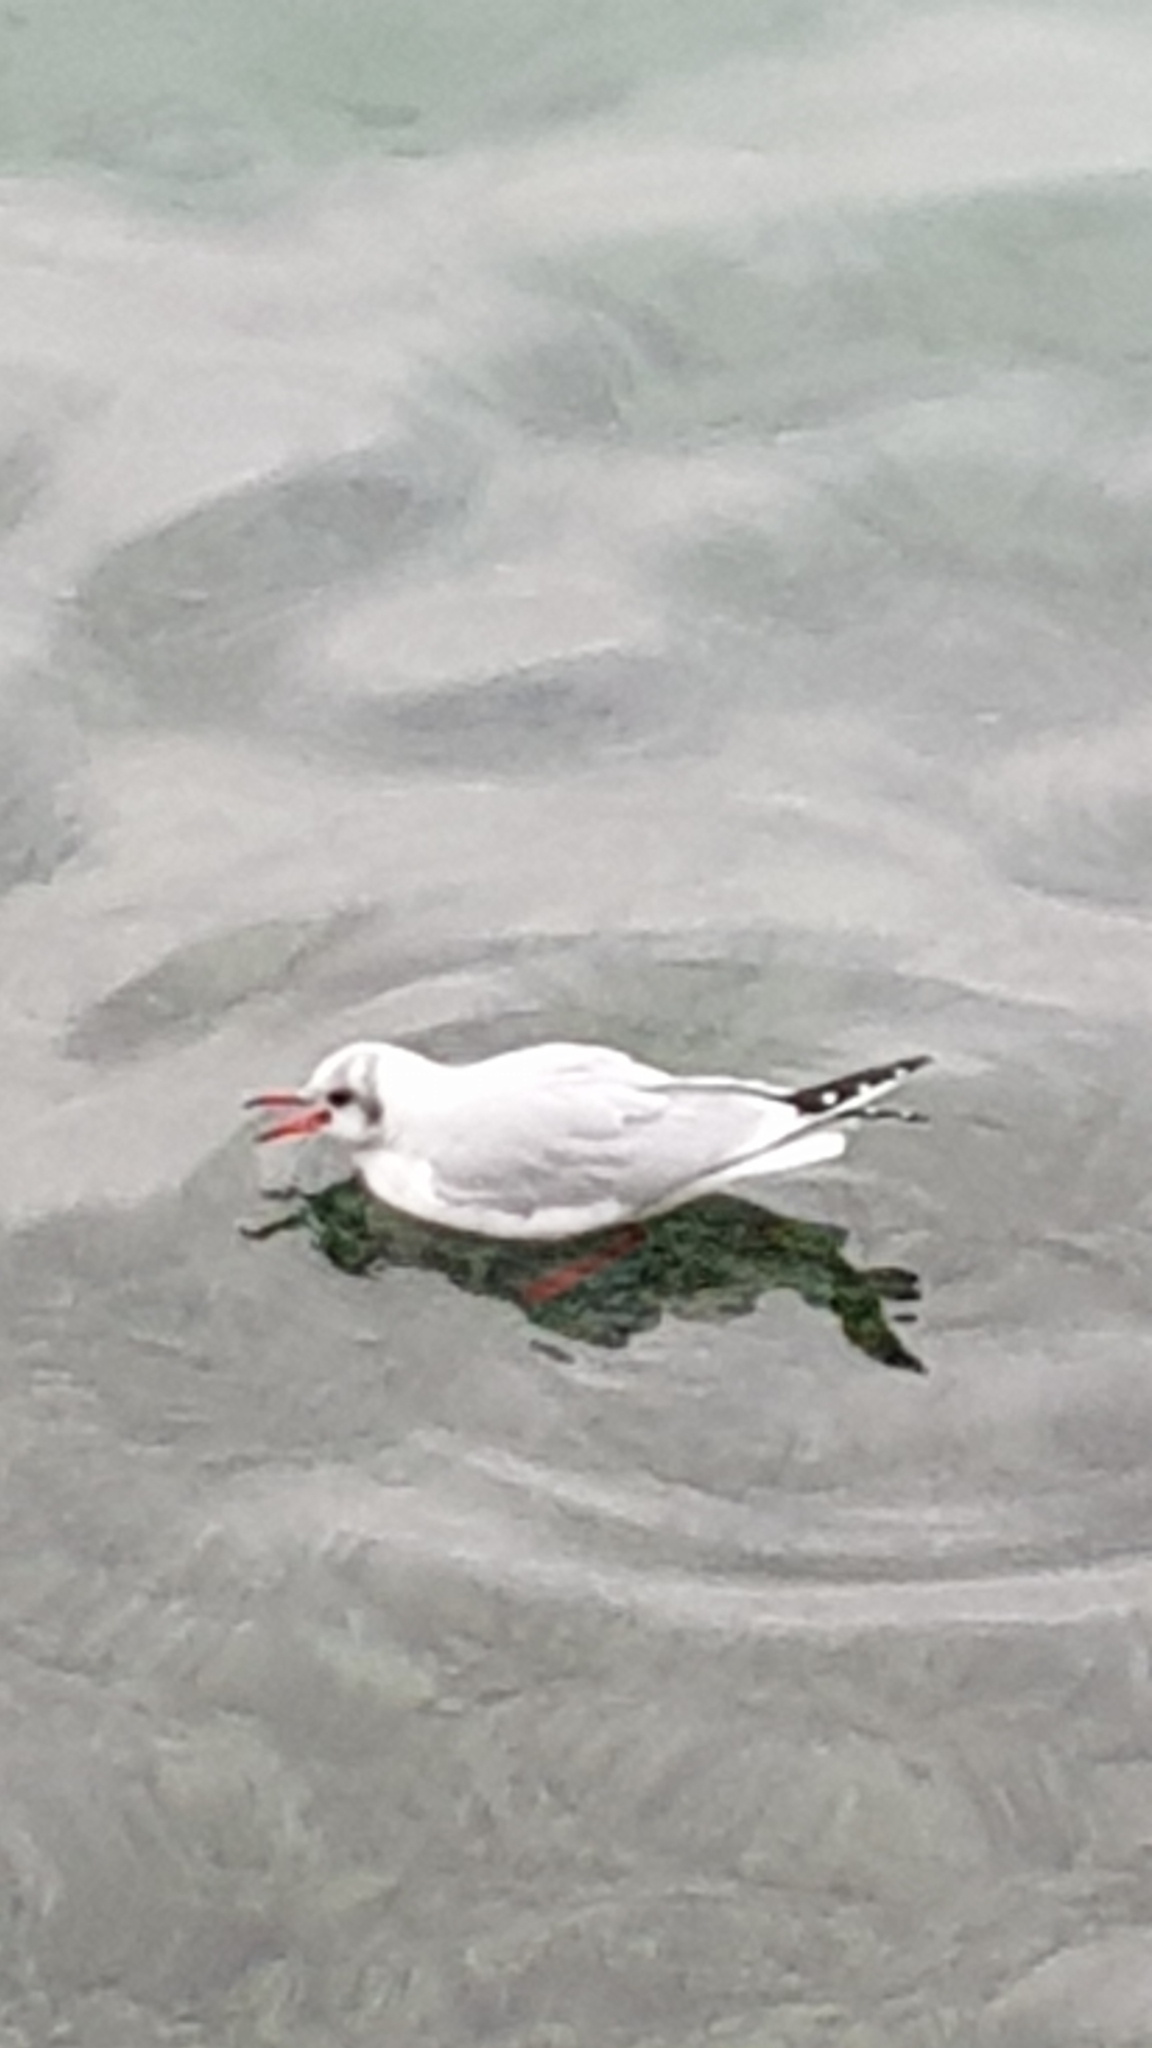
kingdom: Animalia
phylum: Chordata
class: Aves
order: Charadriiformes
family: Laridae
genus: Chroicocephalus
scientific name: Chroicocephalus ridibundus
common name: Black-headed gull
